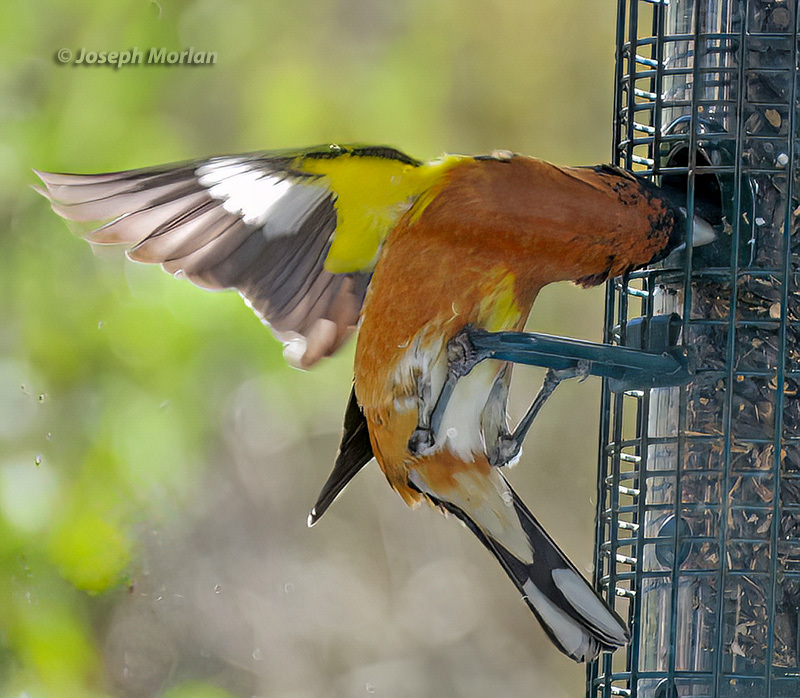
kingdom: Animalia
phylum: Chordata
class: Aves
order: Passeriformes
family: Cardinalidae
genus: Pheucticus
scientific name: Pheucticus melanocephalus
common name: Black-headed grosbeak
